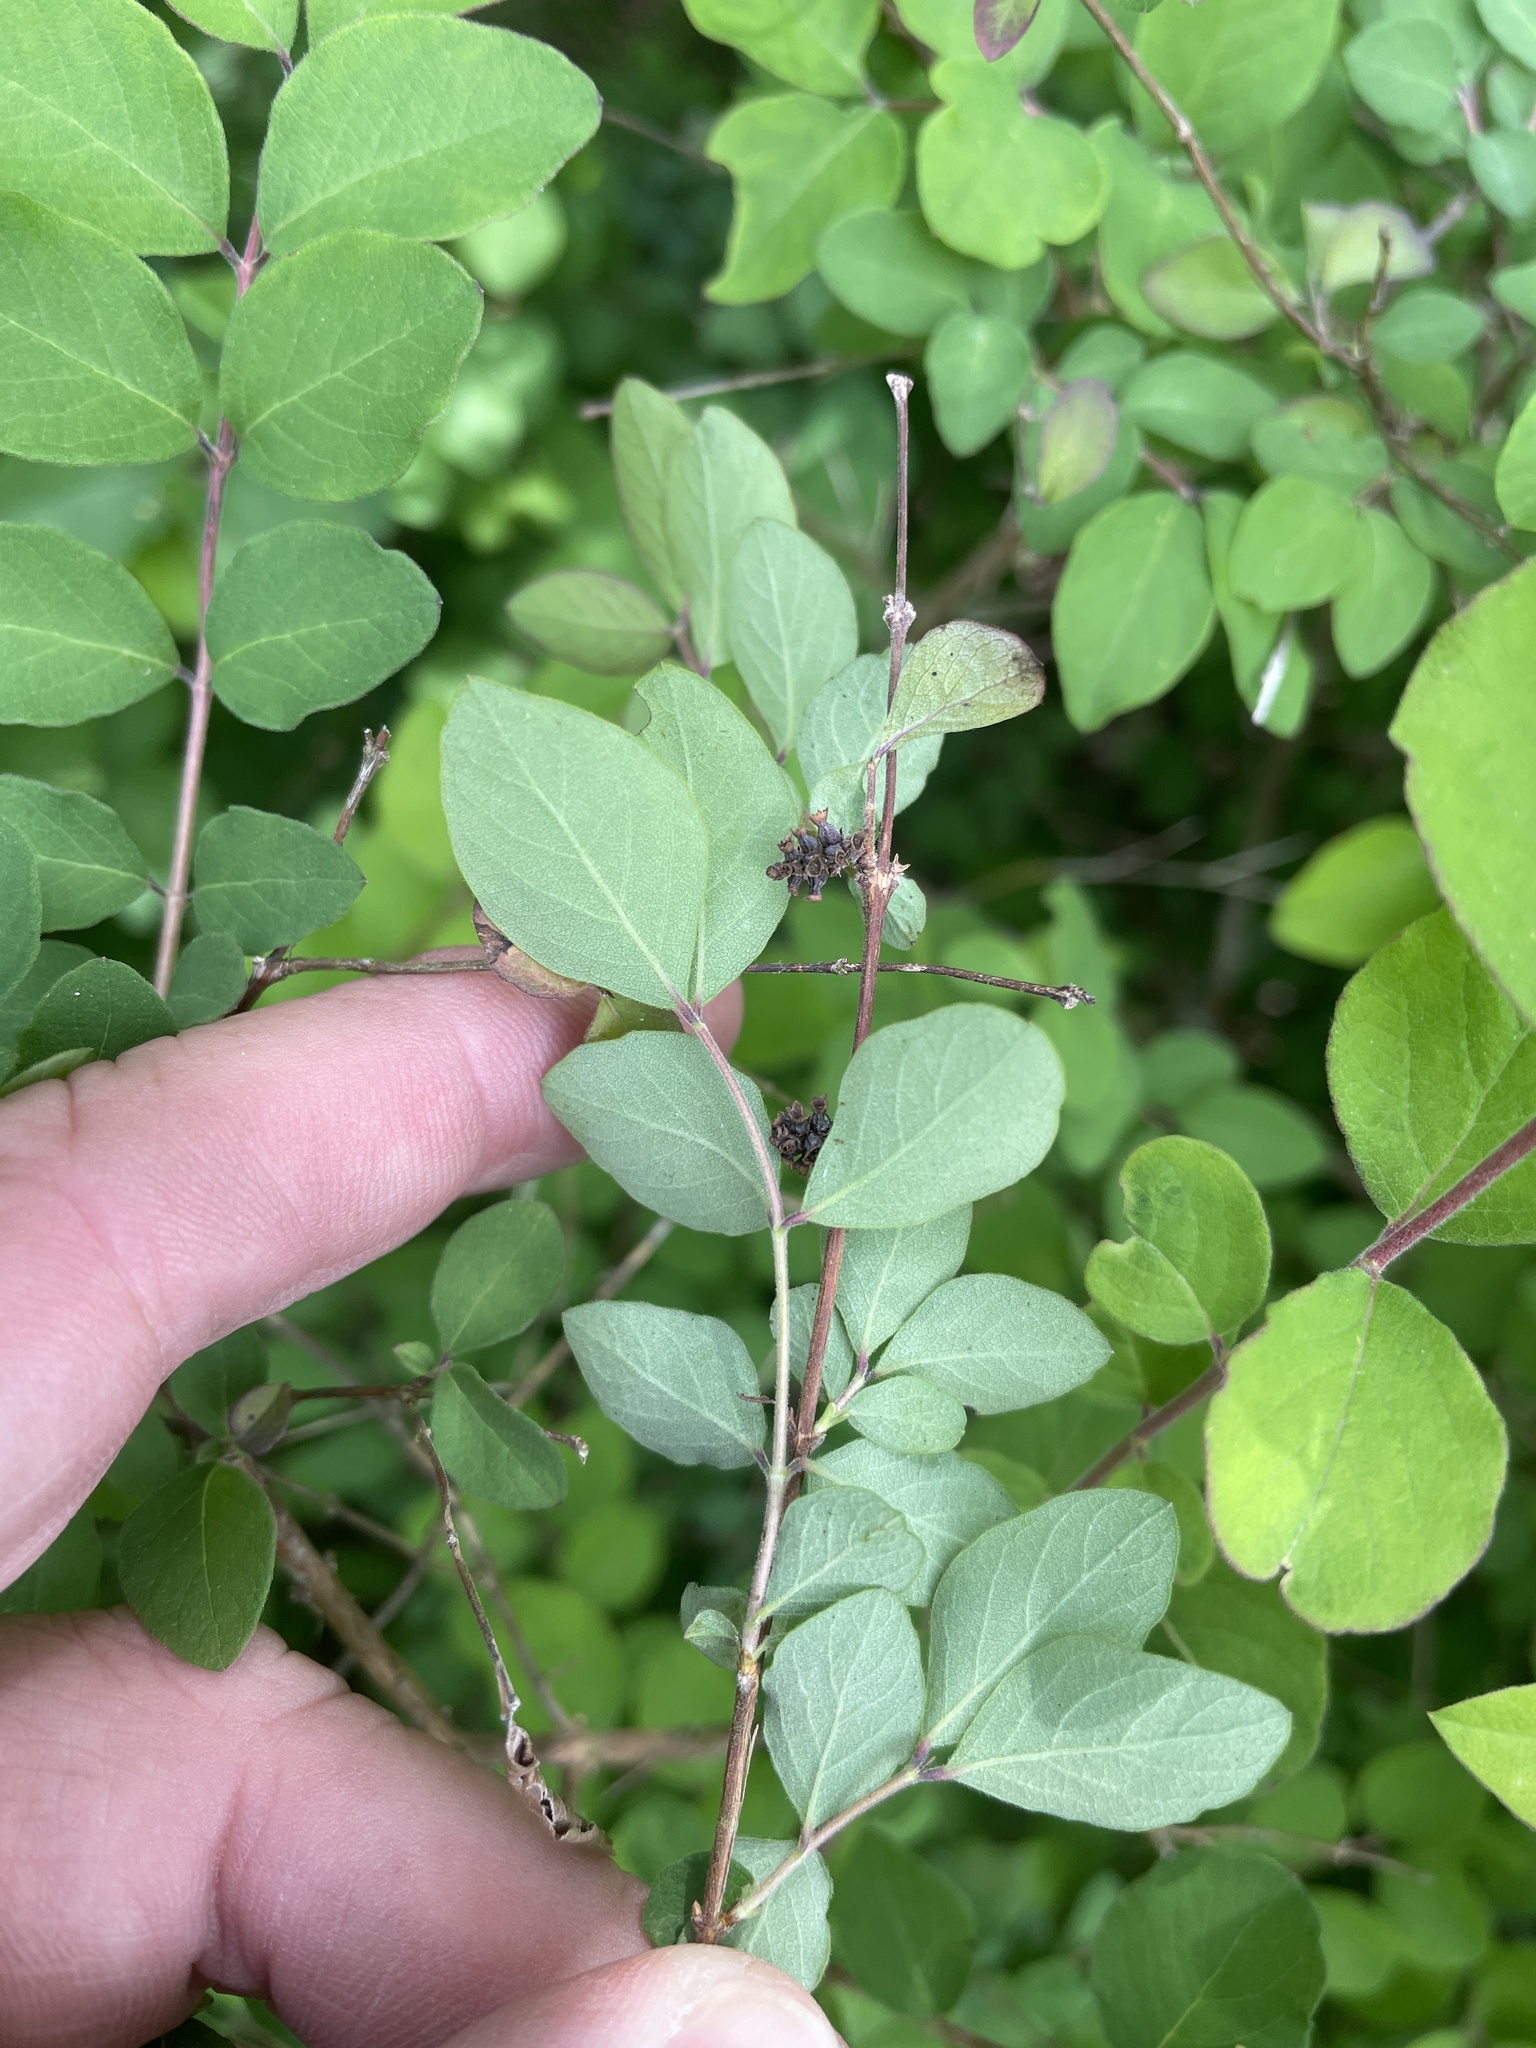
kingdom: Plantae
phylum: Tracheophyta
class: Magnoliopsida
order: Dipsacales
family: Caprifoliaceae
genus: Symphoricarpos
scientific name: Symphoricarpos orbiculatus
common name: Coralberry
